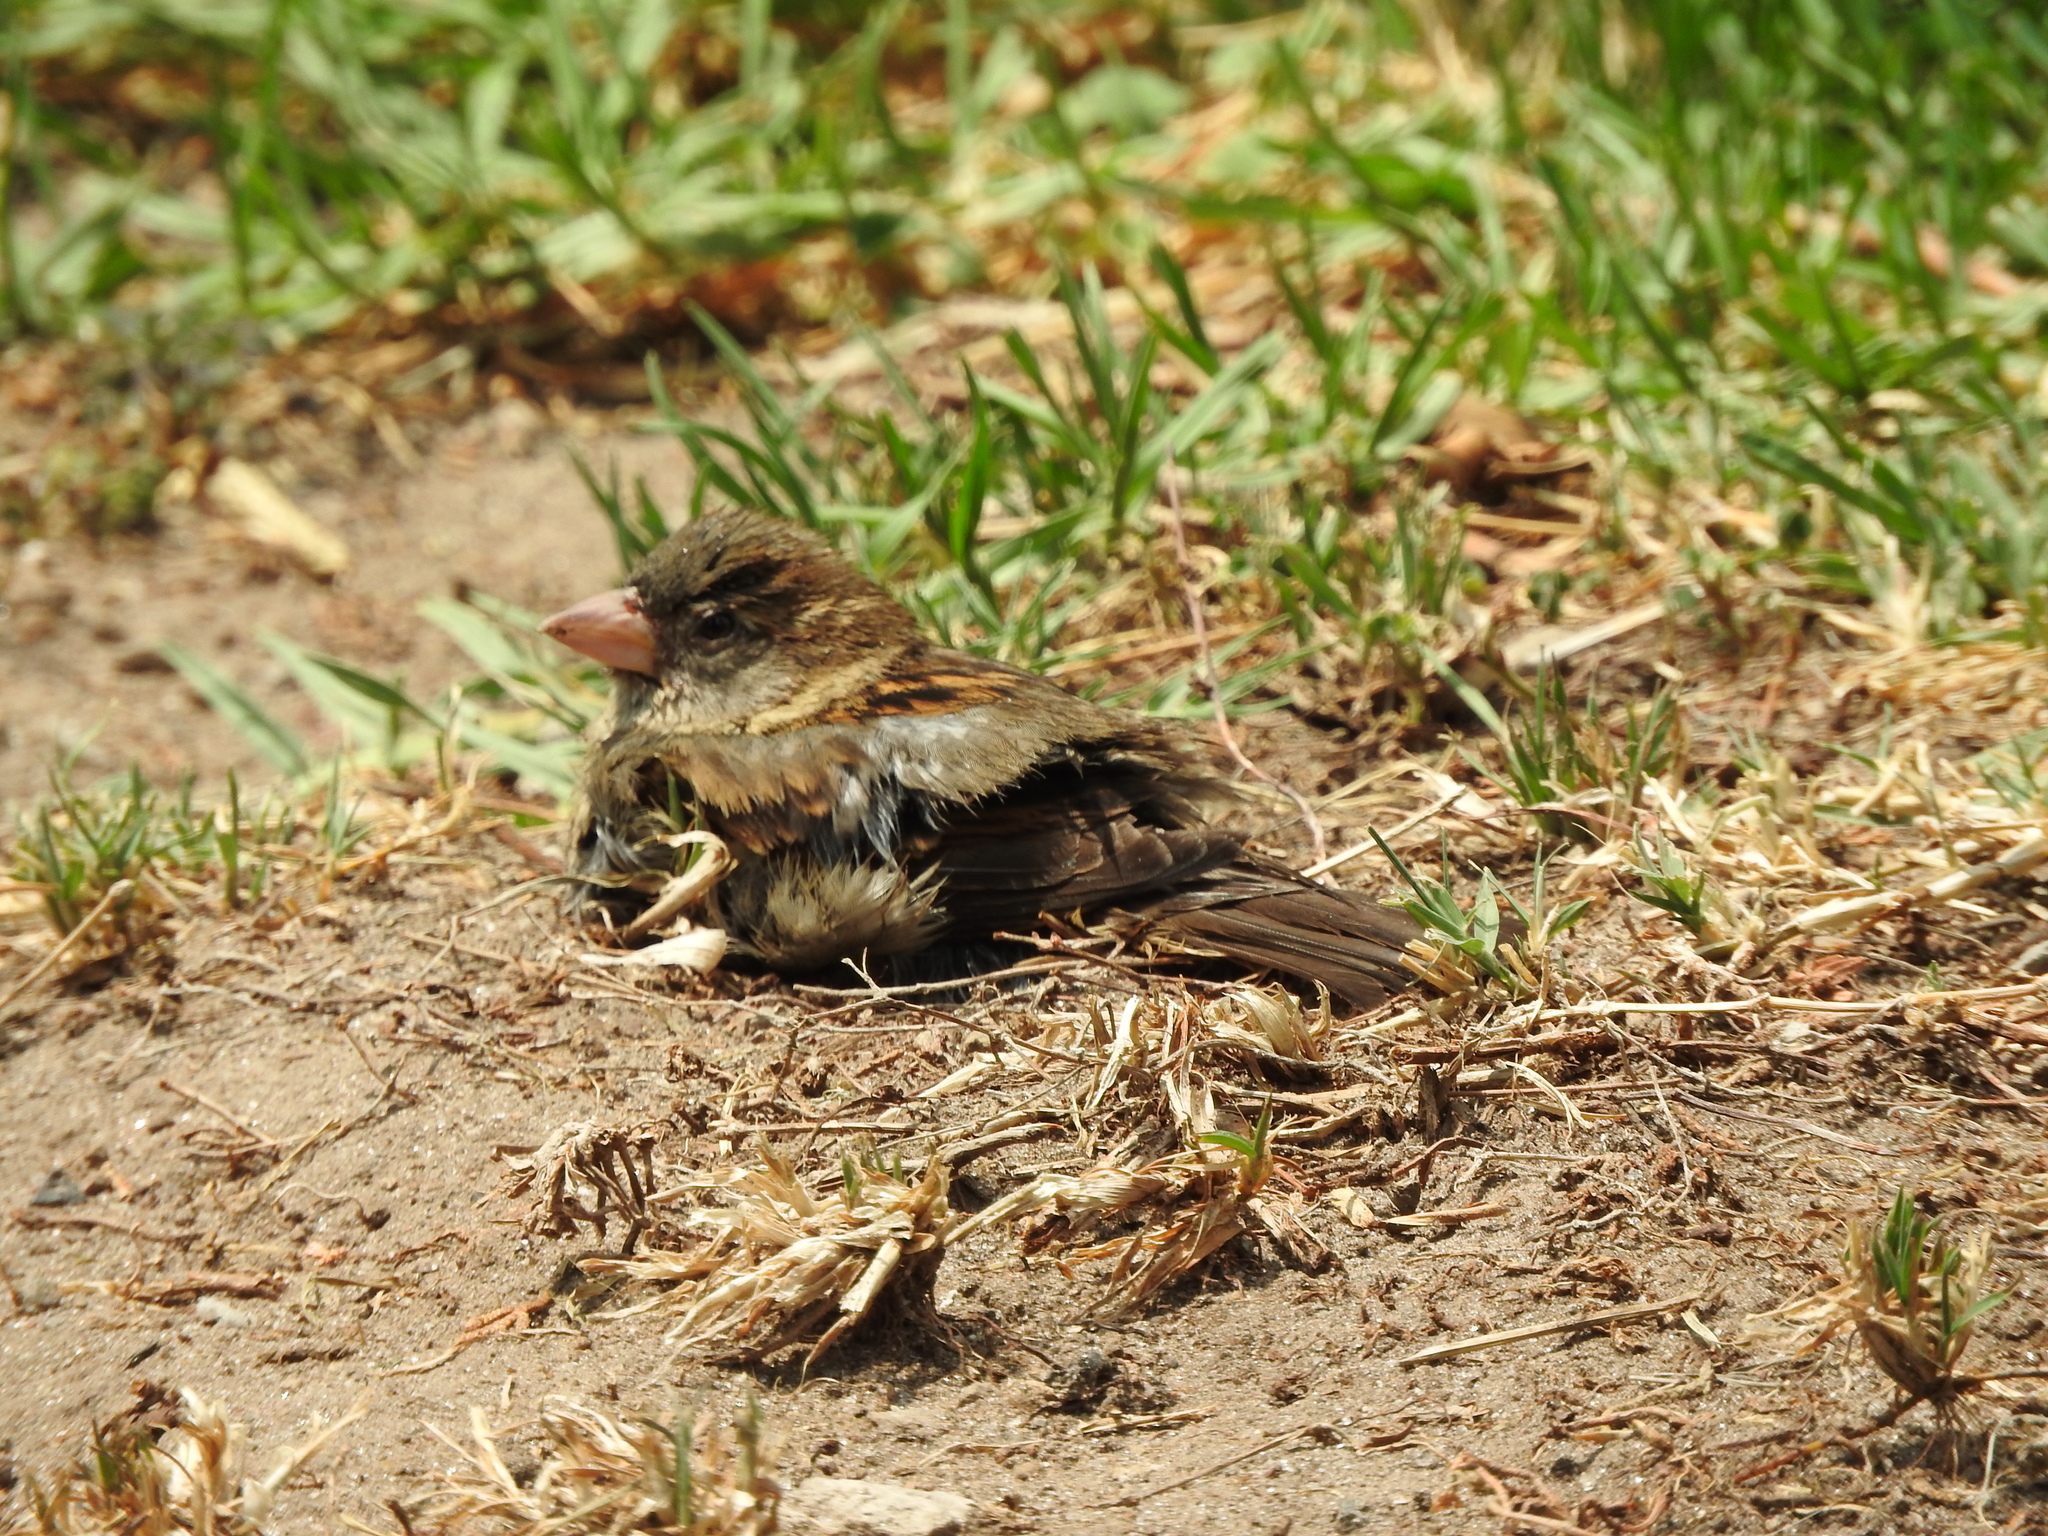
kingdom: Animalia
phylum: Chordata
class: Aves
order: Passeriformes
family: Passeridae
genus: Passer
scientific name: Passer domesticus
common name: House sparrow
